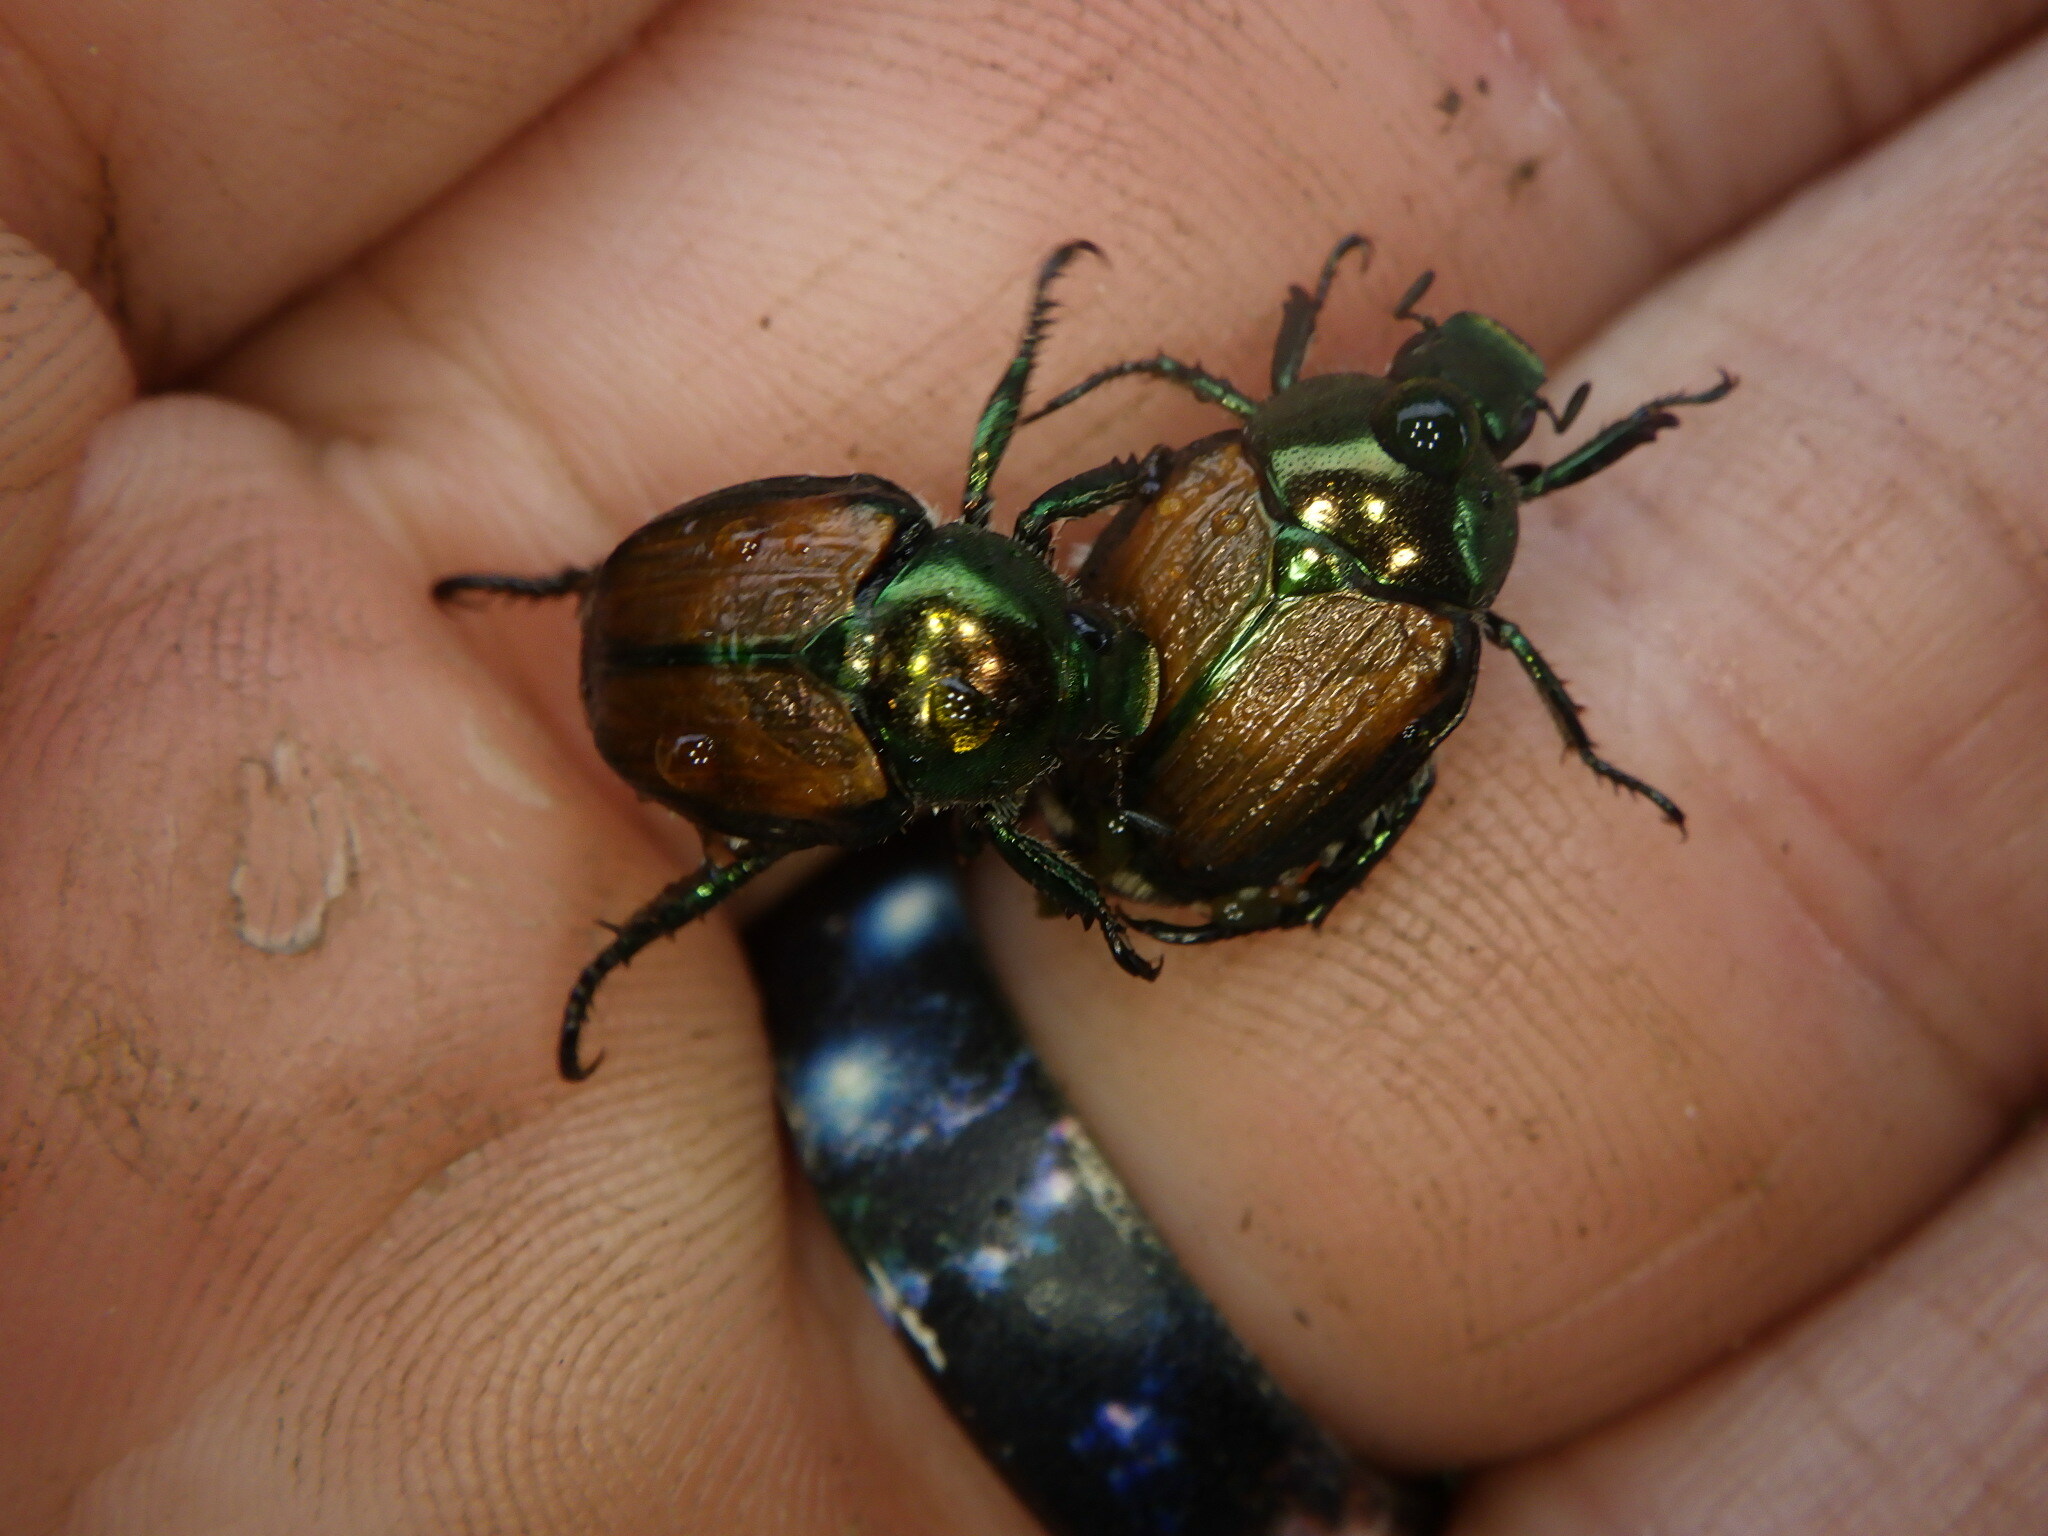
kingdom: Animalia
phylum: Arthropoda
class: Insecta
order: Coleoptera
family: Scarabaeidae
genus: Popillia
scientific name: Popillia japonica
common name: Japanese beetle
